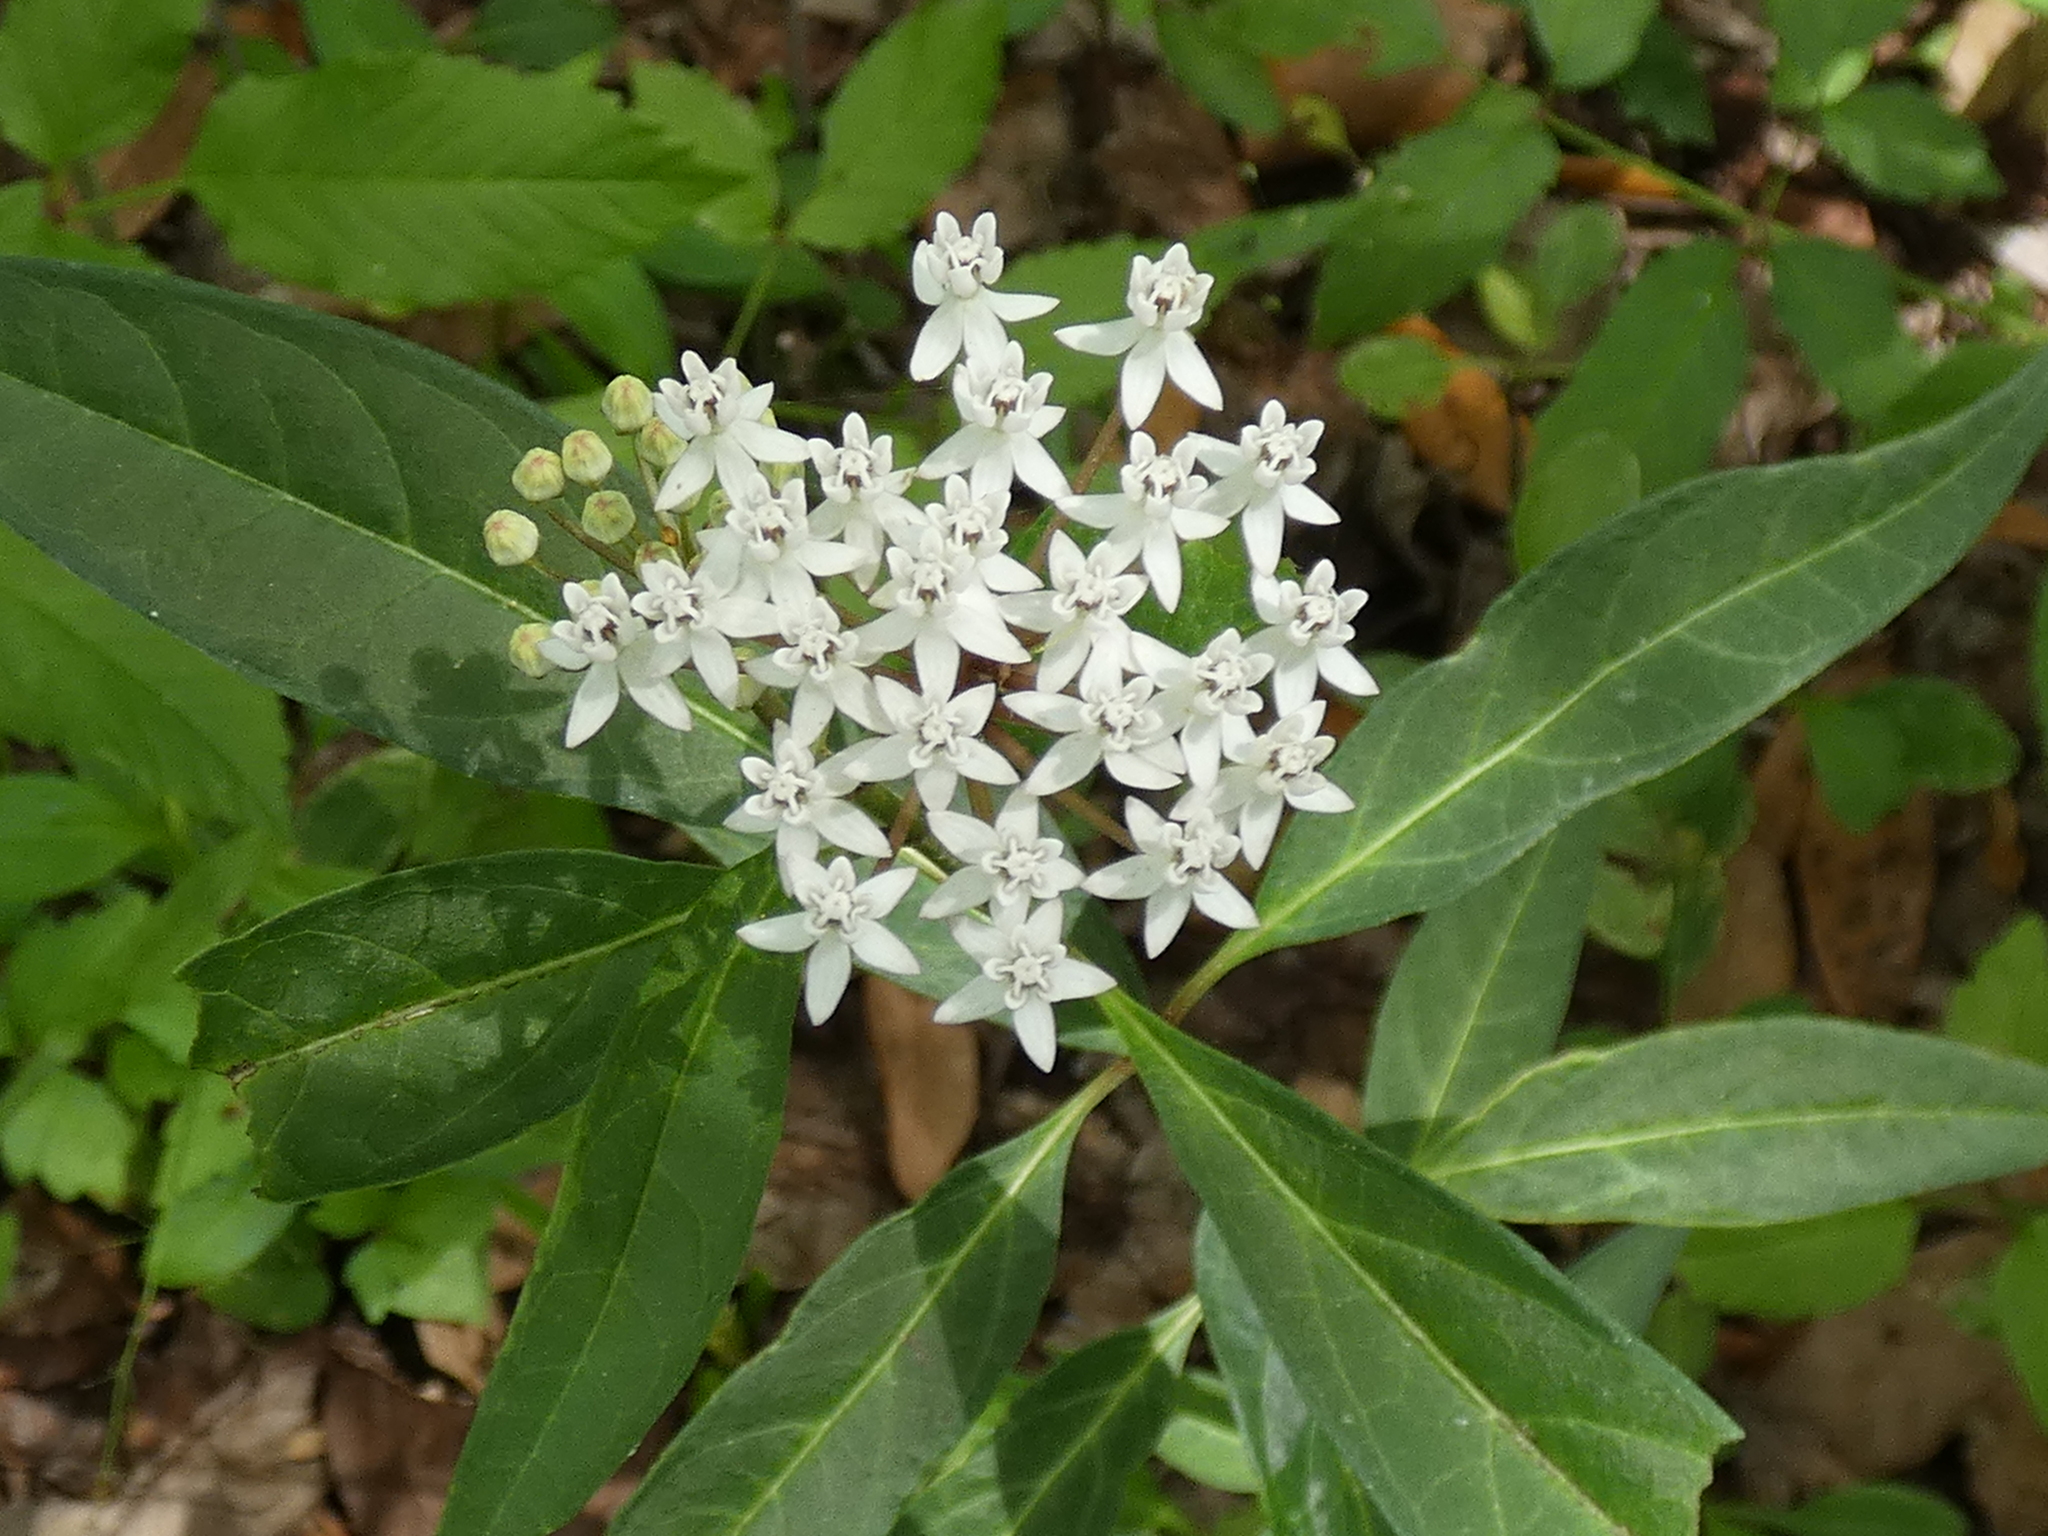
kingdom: Plantae
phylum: Tracheophyta
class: Magnoliopsida
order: Gentianales
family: Apocynaceae
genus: Asclepias
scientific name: Asclepias perennis
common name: Smooth-seed milkweed
